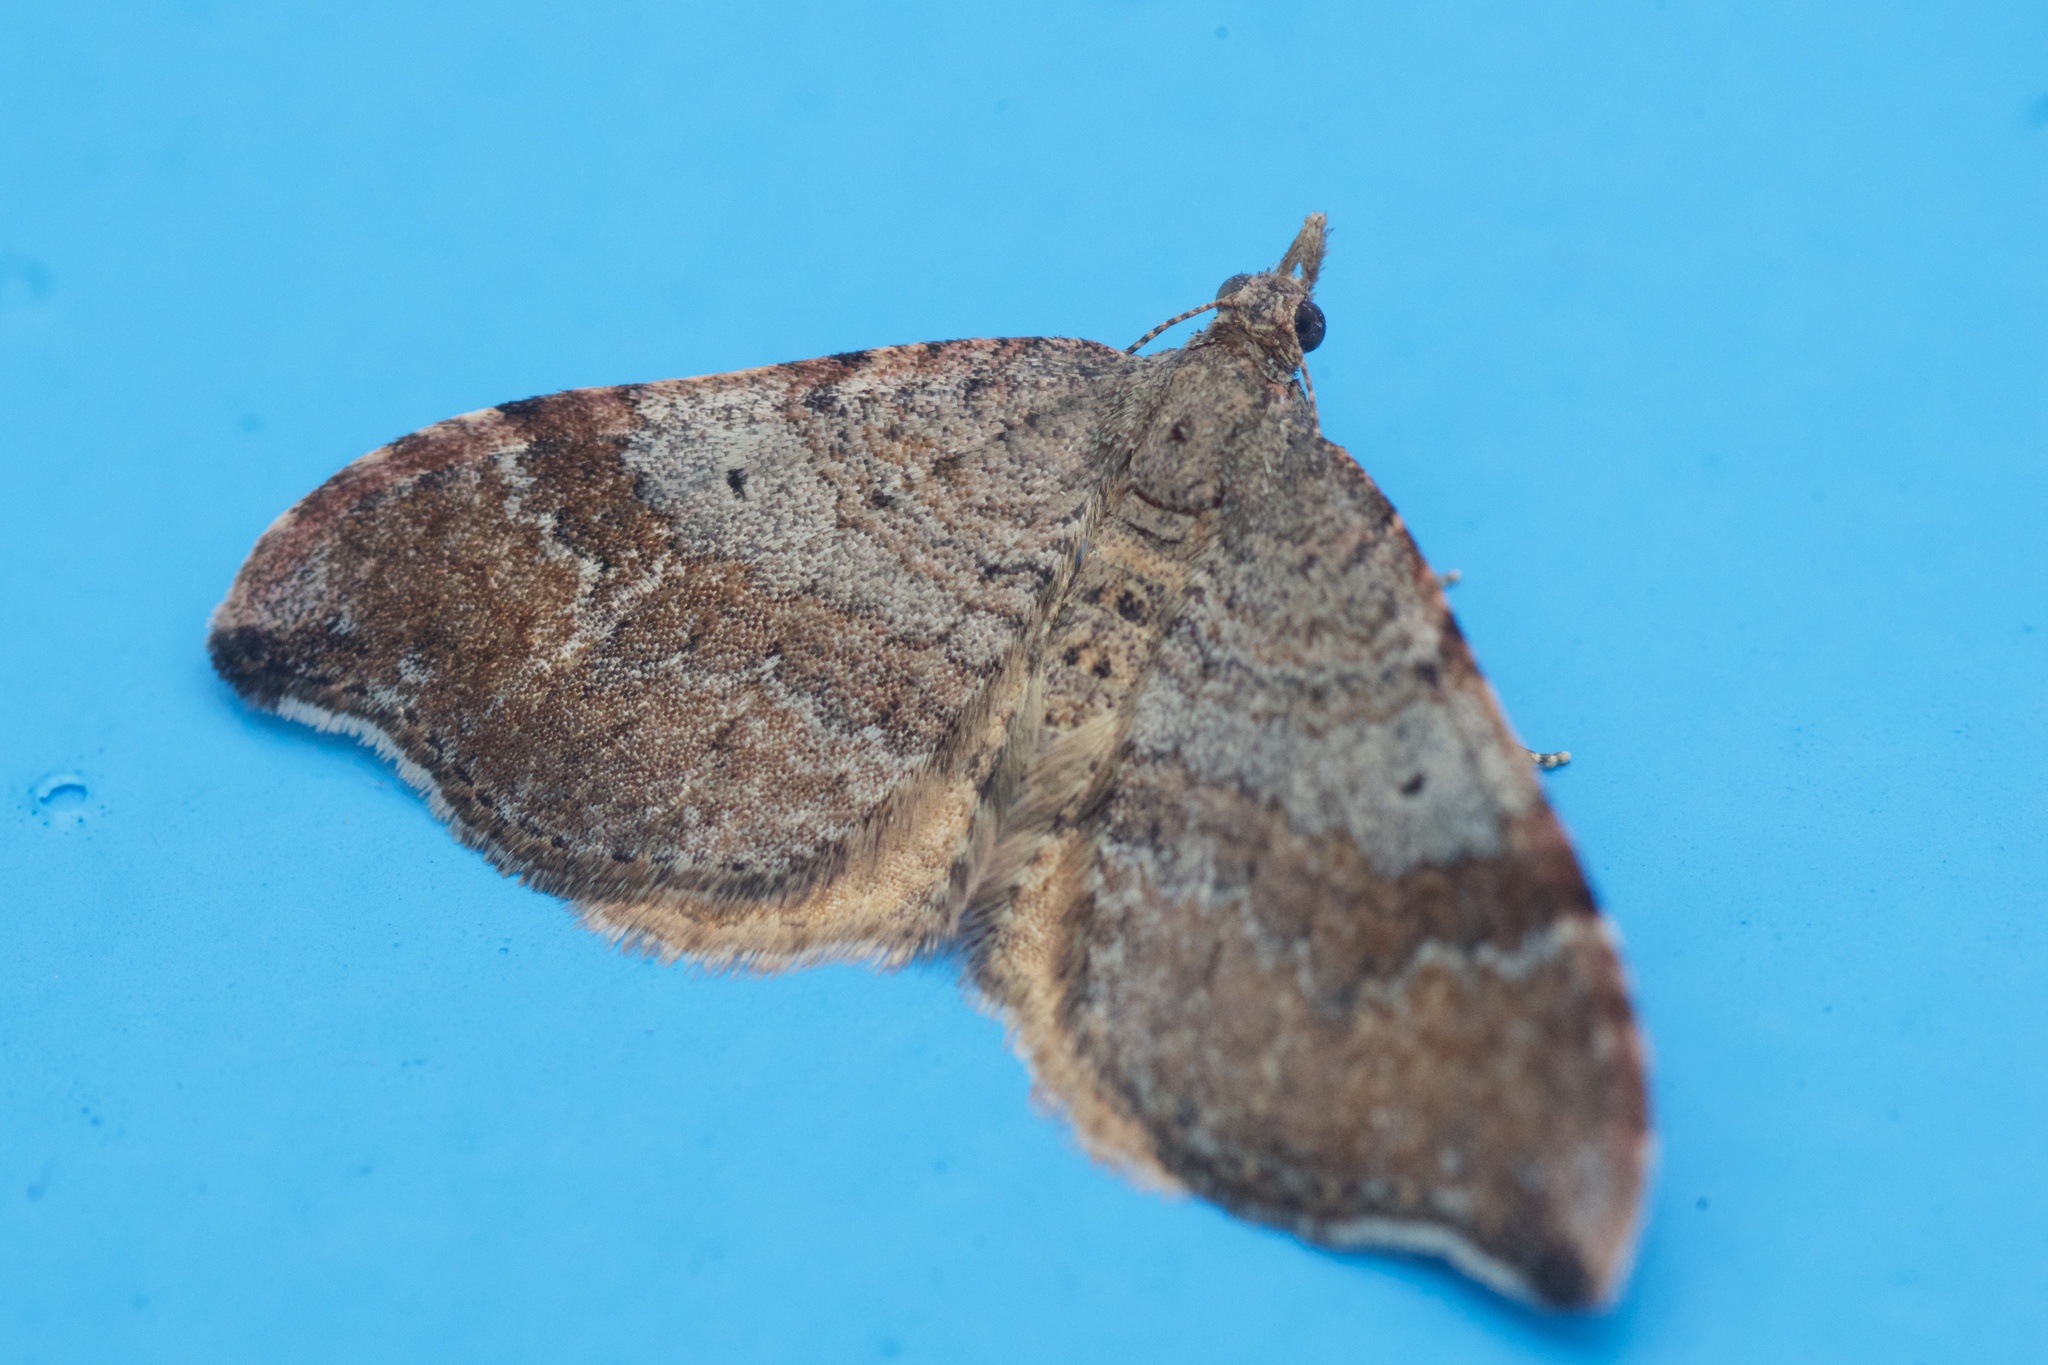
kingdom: Animalia
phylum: Arthropoda
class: Insecta
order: Lepidoptera
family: Geometridae
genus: Homodotis
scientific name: Homodotis megaspilata
